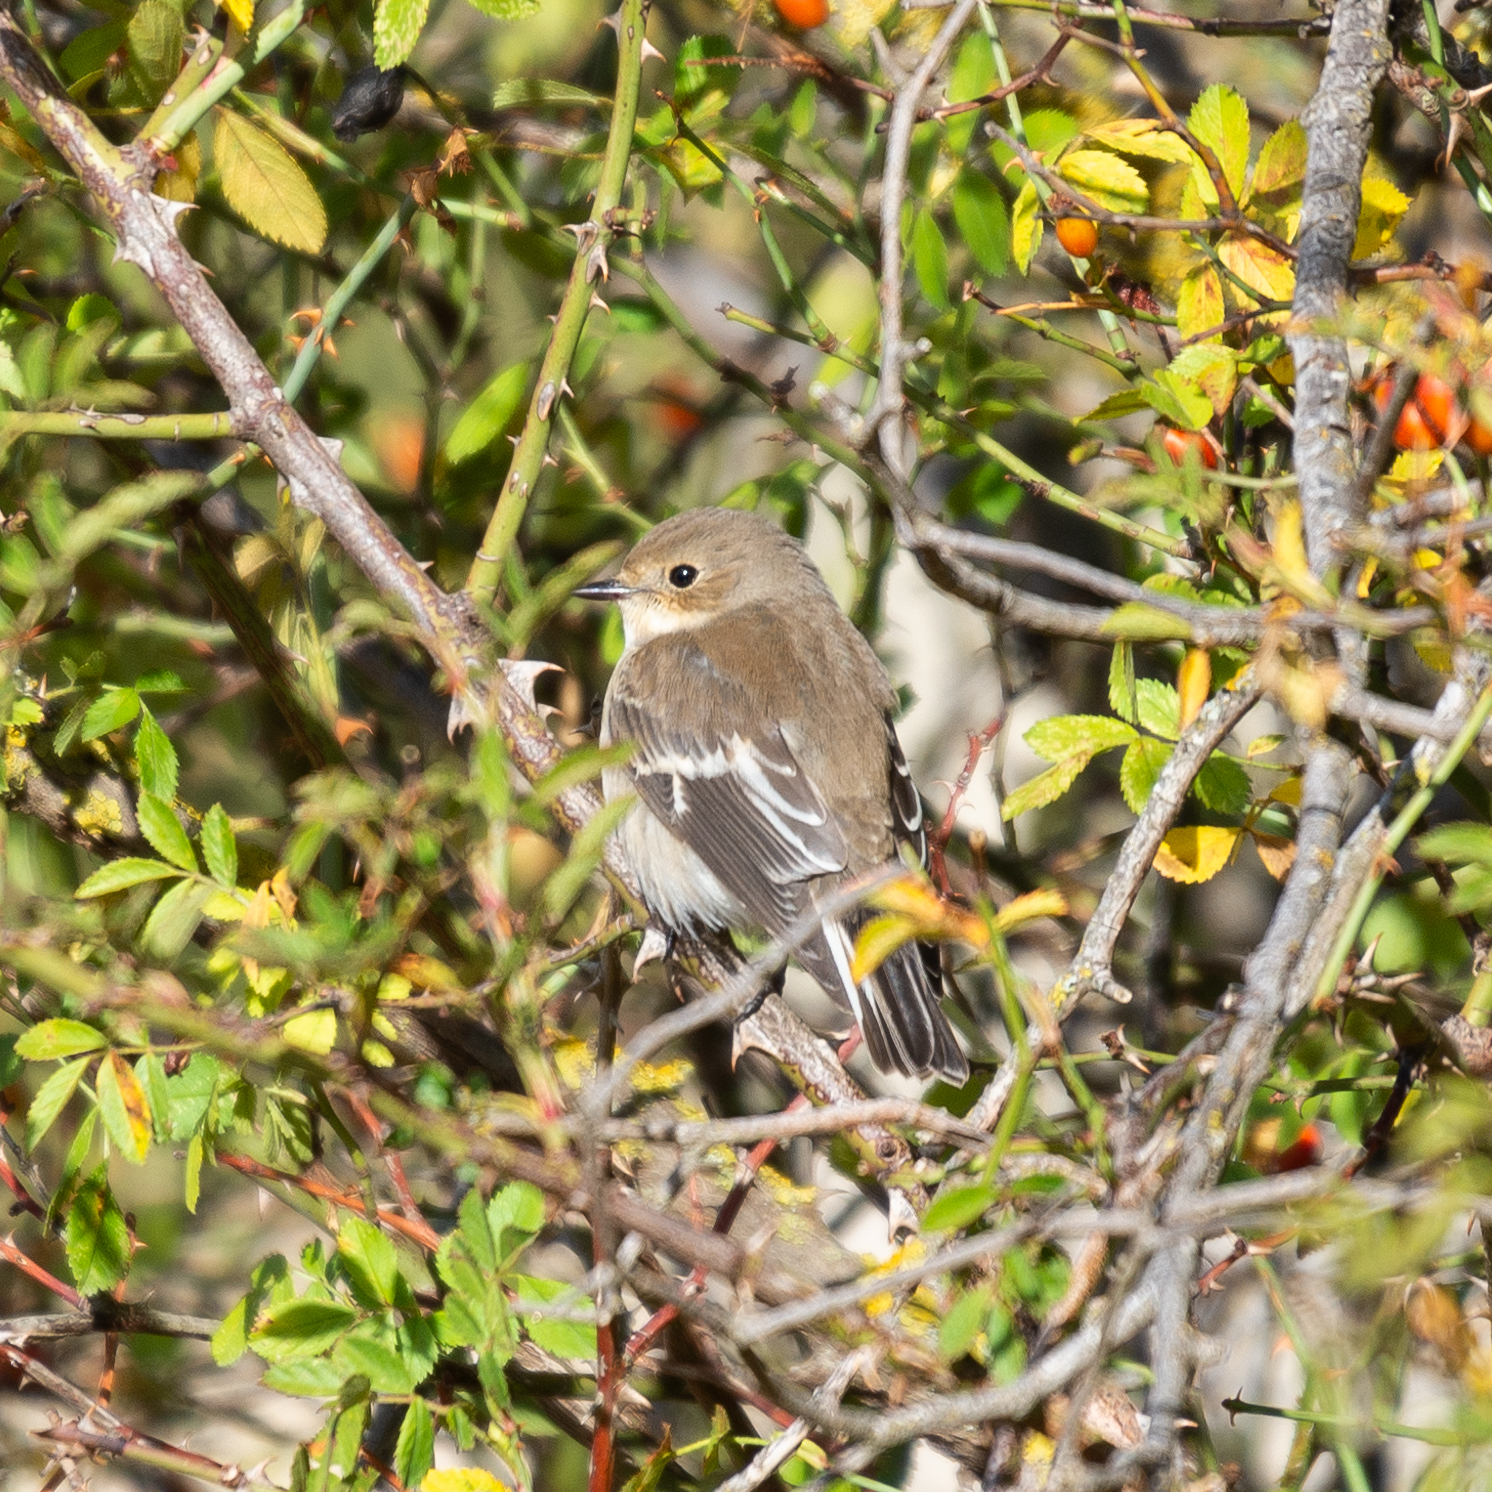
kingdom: Animalia
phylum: Chordata
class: Aves
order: Passeriformes
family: Muscicapidae
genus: Ficedula
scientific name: Ficedula hypoleuca
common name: European pied flycatcher
